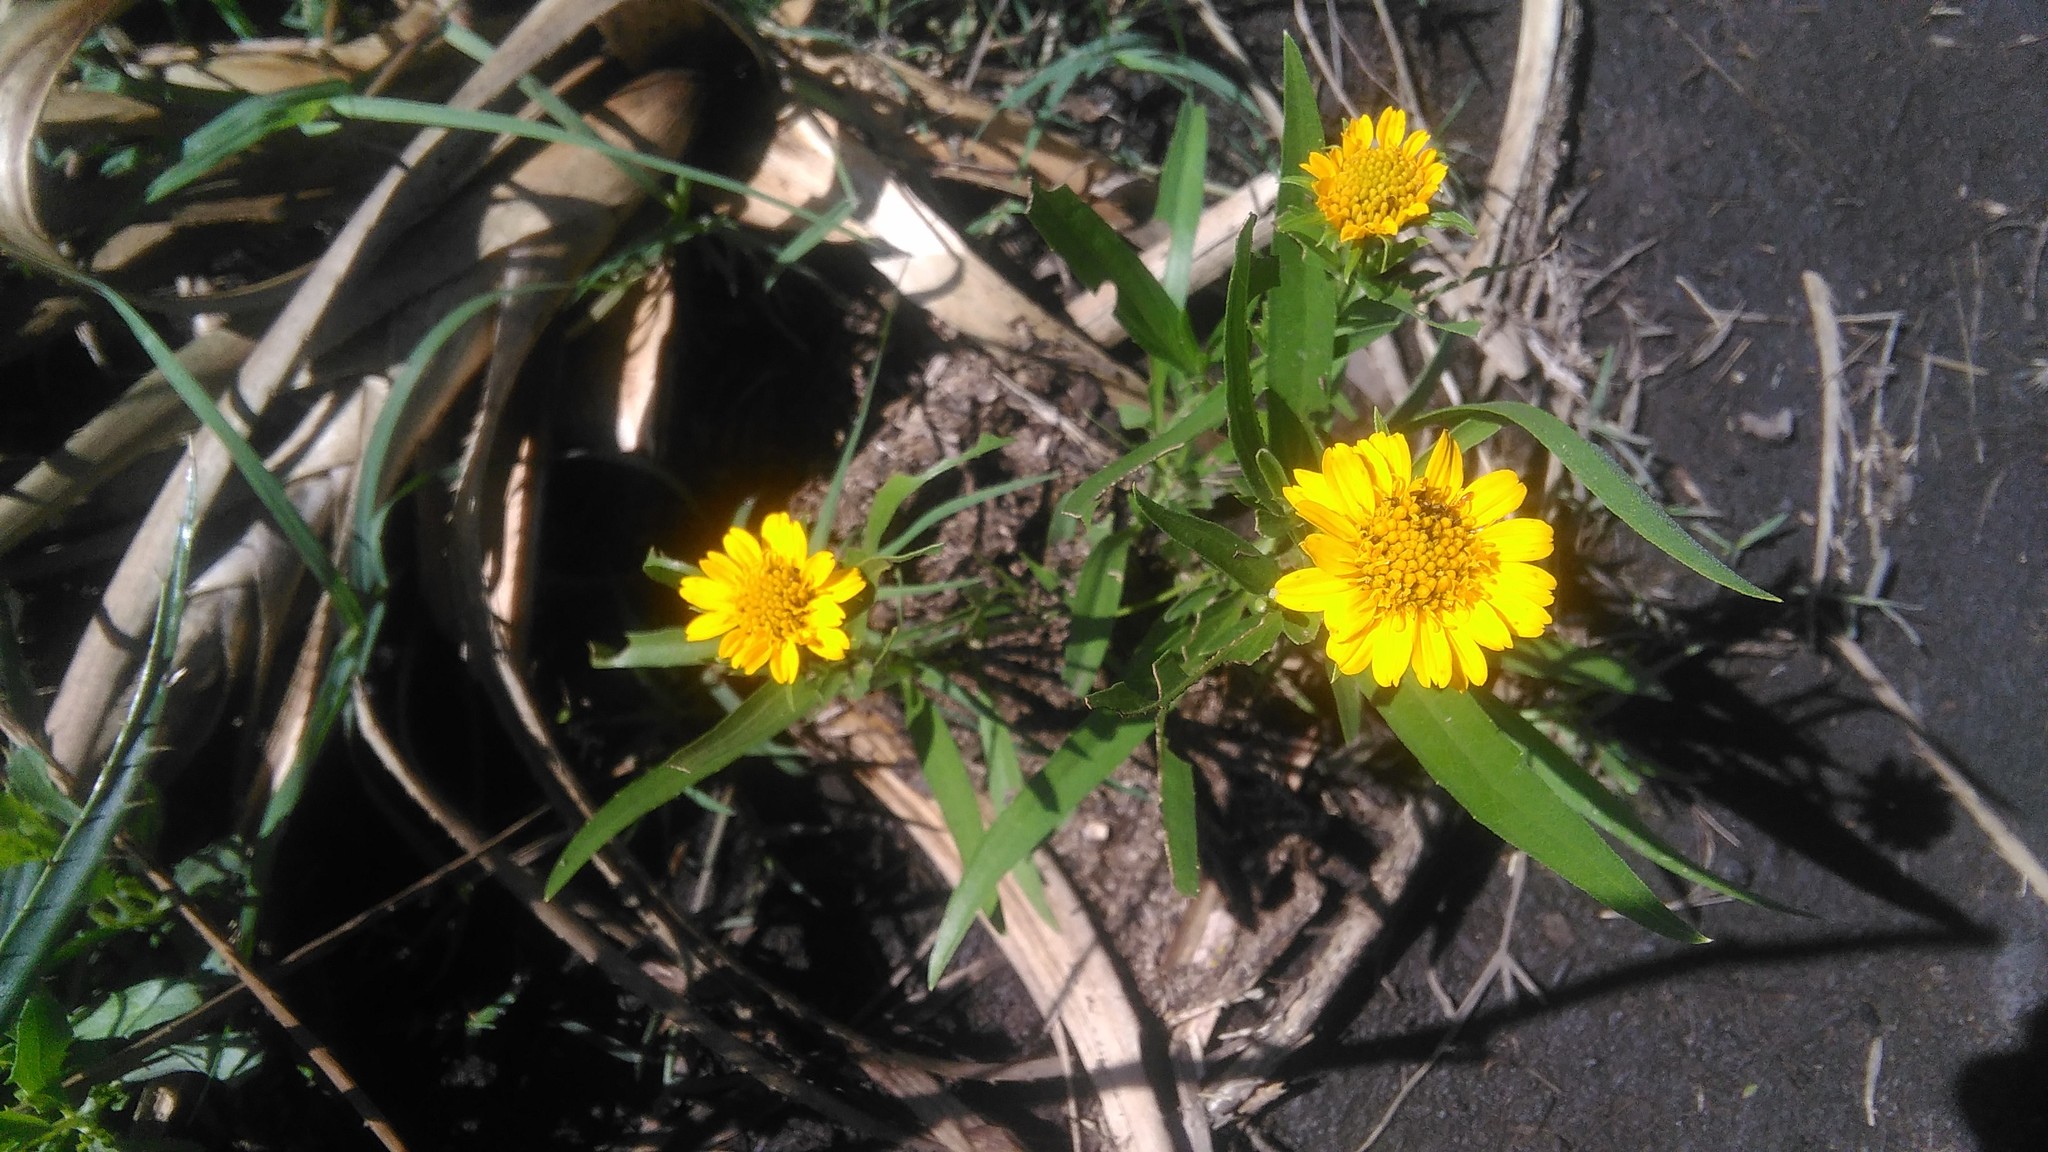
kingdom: Plantae
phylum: Tracheophyta
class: Magnoliopsida
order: Asterales
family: Asteraceae
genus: Pascalia
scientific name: Pascalia glauca
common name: Beach creeping oxeye
